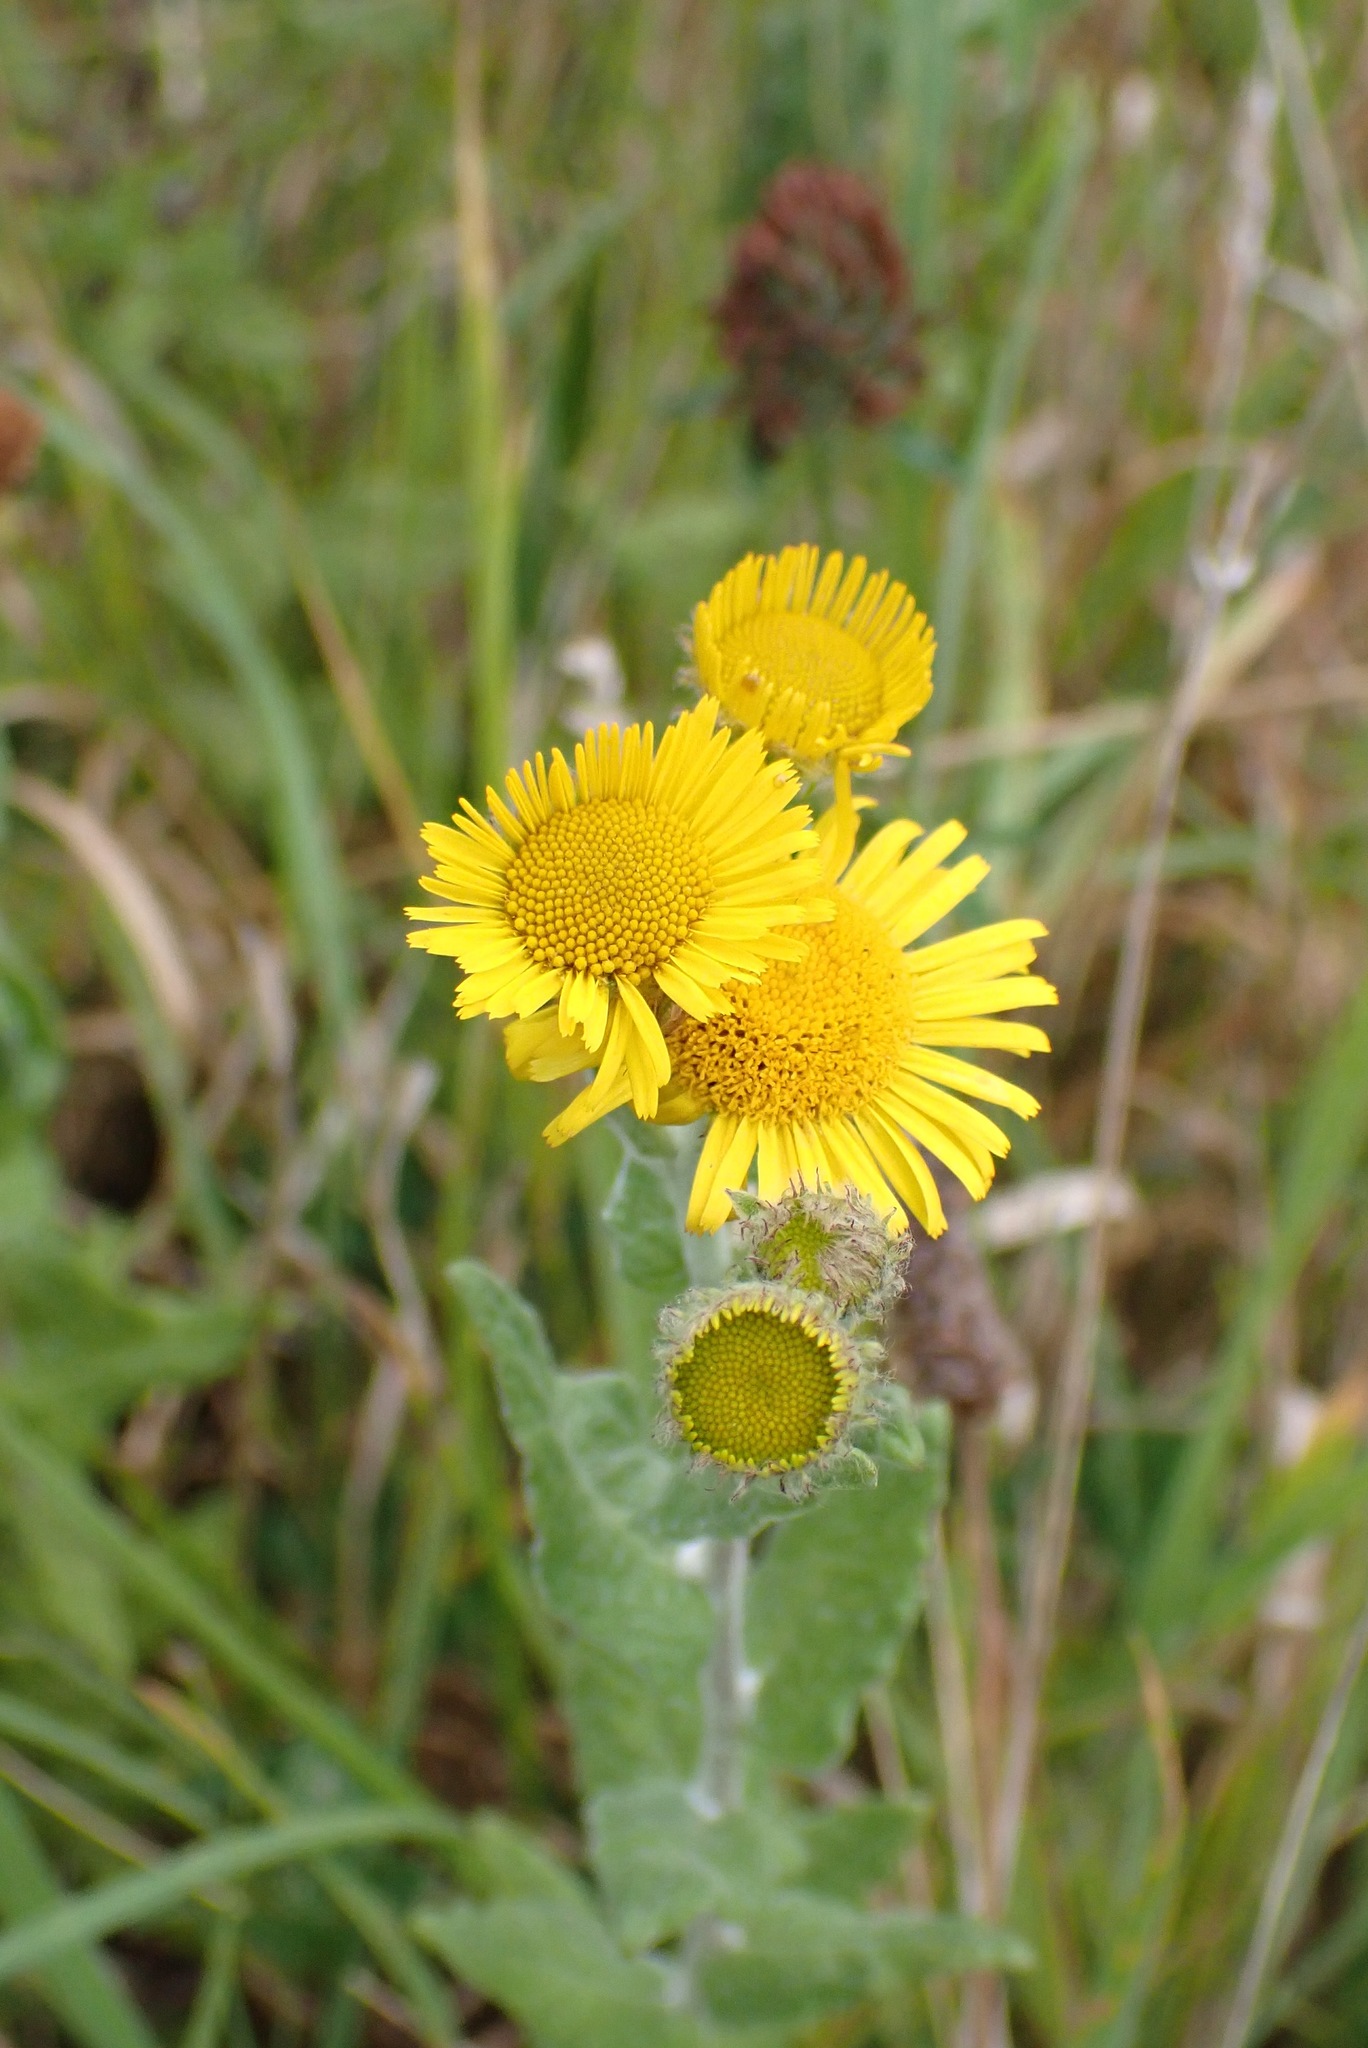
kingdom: Plantae
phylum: Tracheophyta
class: Magnoliopsida
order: Asterales
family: Asteraceae
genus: Pulicaria
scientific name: Pulicaria dysenterica
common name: Common fleabane
